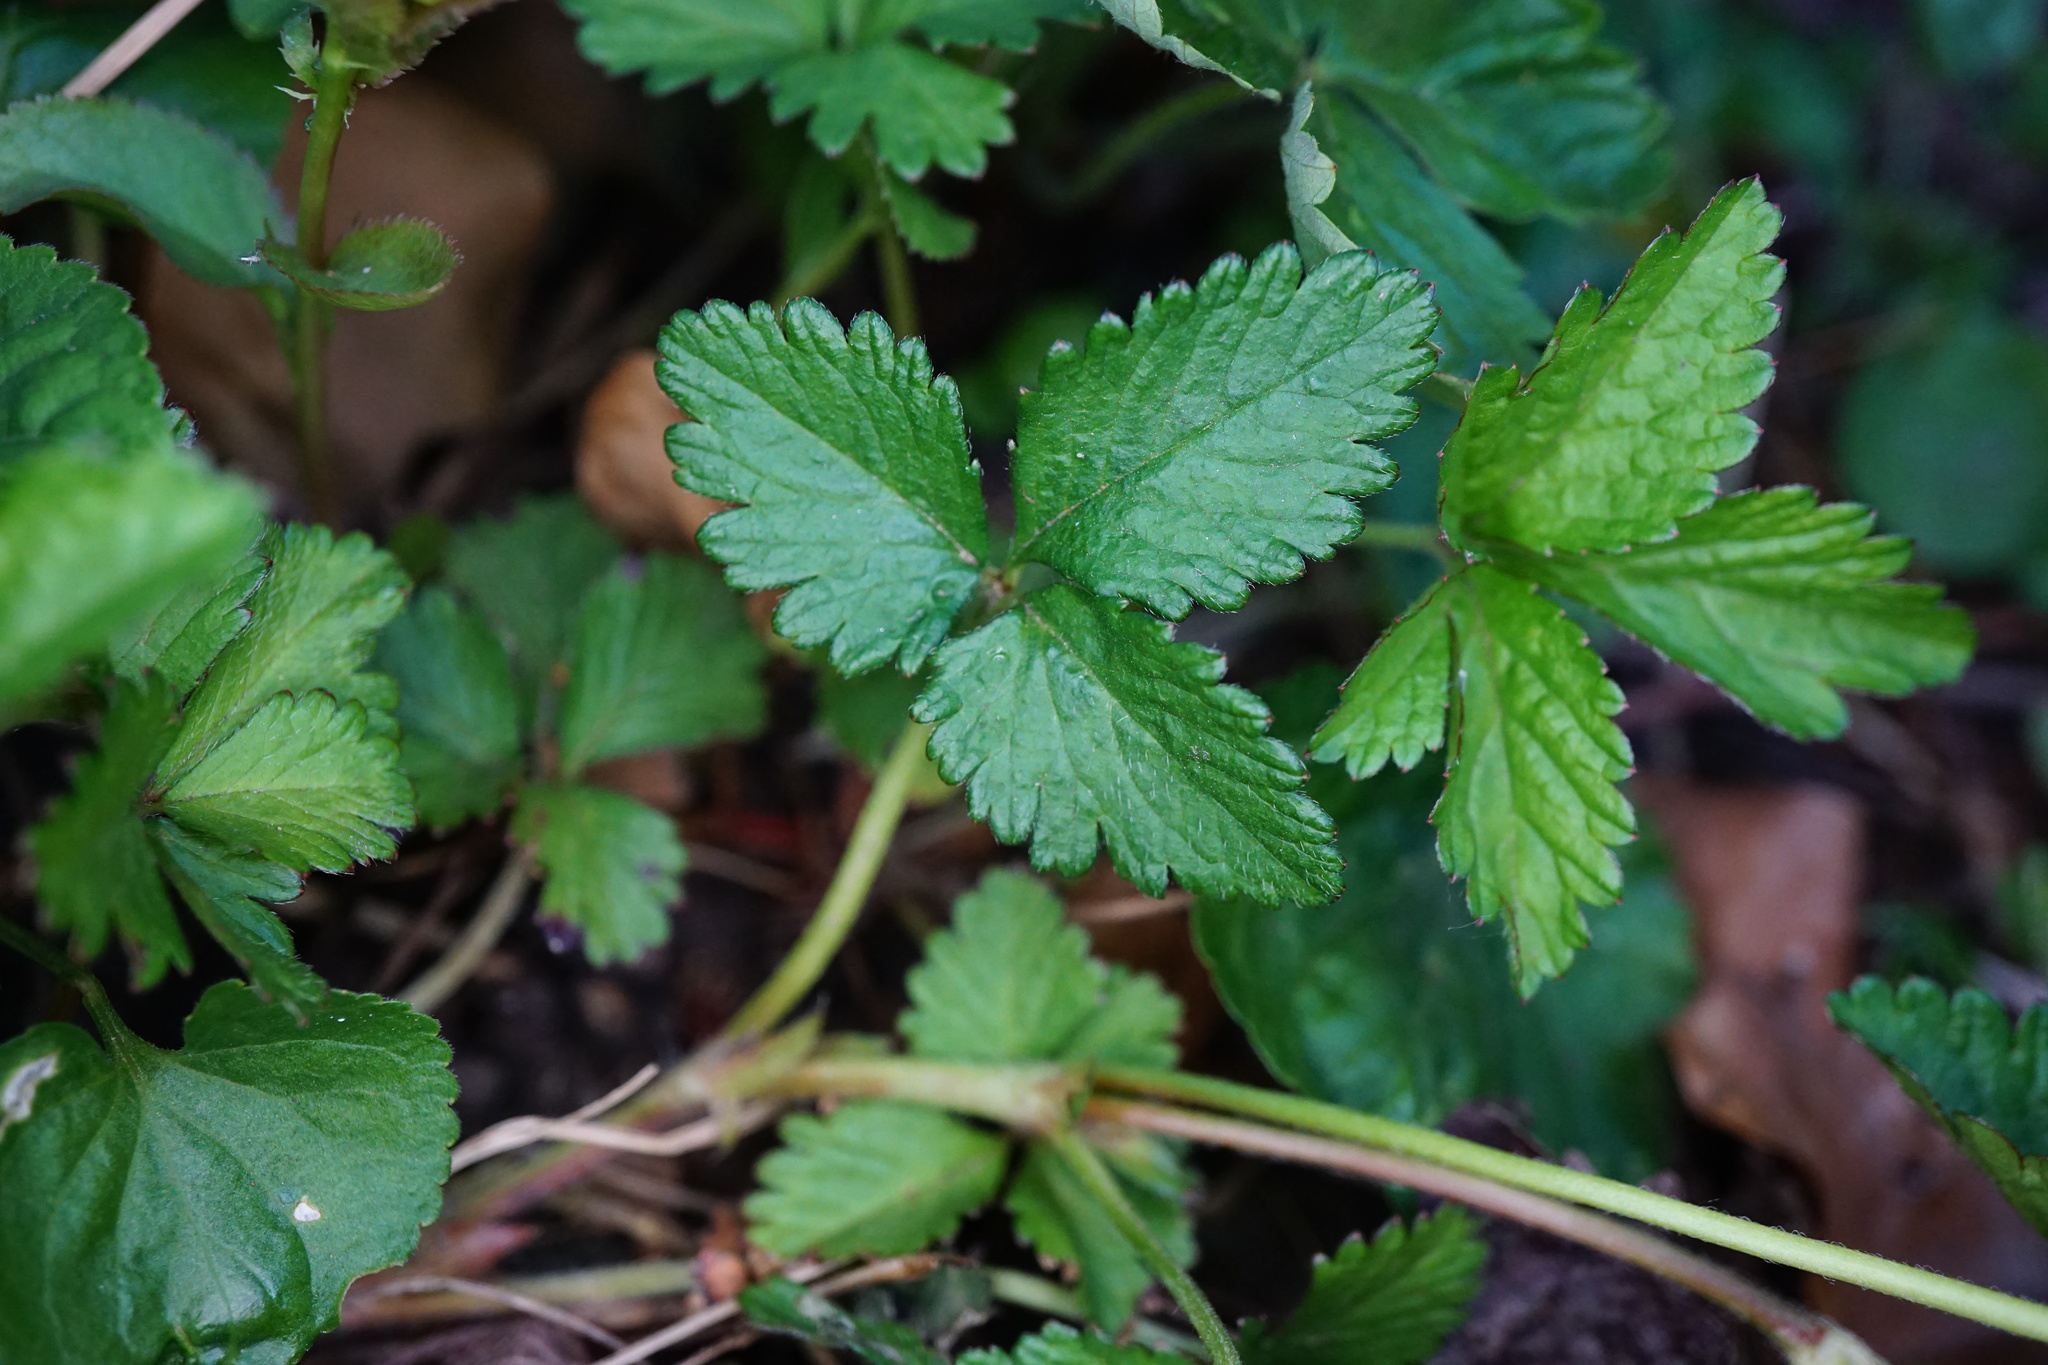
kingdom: Plantae
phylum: Tracheophyta
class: Magnoliopsida
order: Rosales
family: Rosaceae
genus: Potentilla
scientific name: Potentilla indica
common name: Yellow-flowered strawberry
